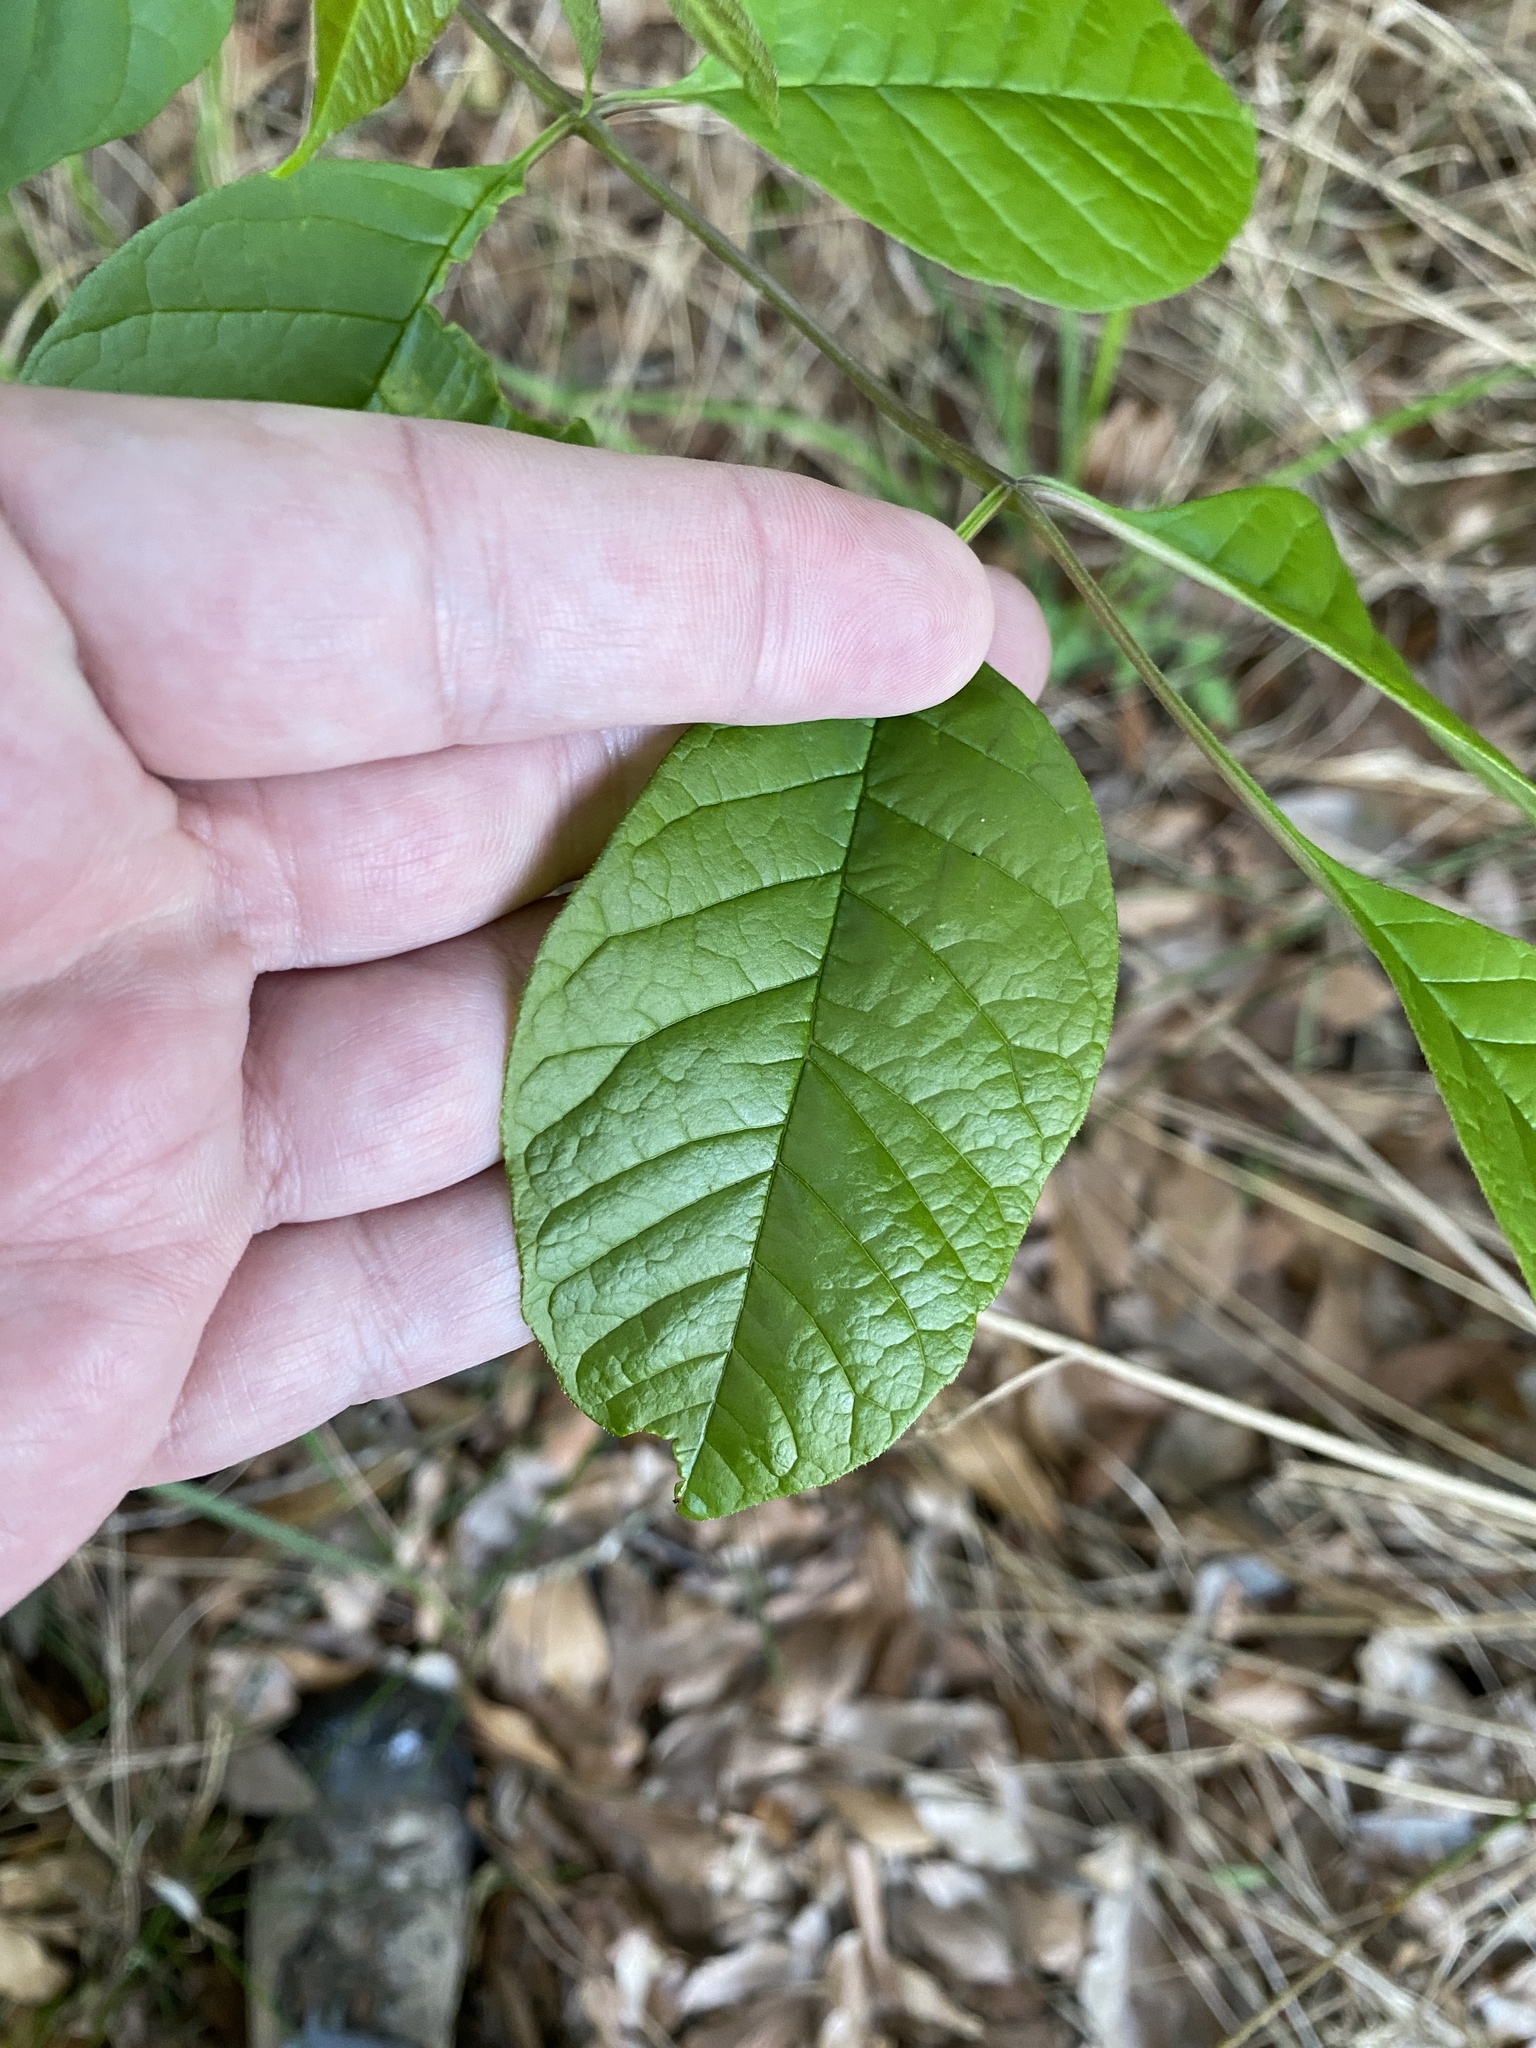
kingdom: Plantae
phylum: Tracheophyta
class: Magnoliopsida
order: Lamiales
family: Oleaceae
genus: Fraxinus
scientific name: Fraxinus pennsylvanica
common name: Green ash
